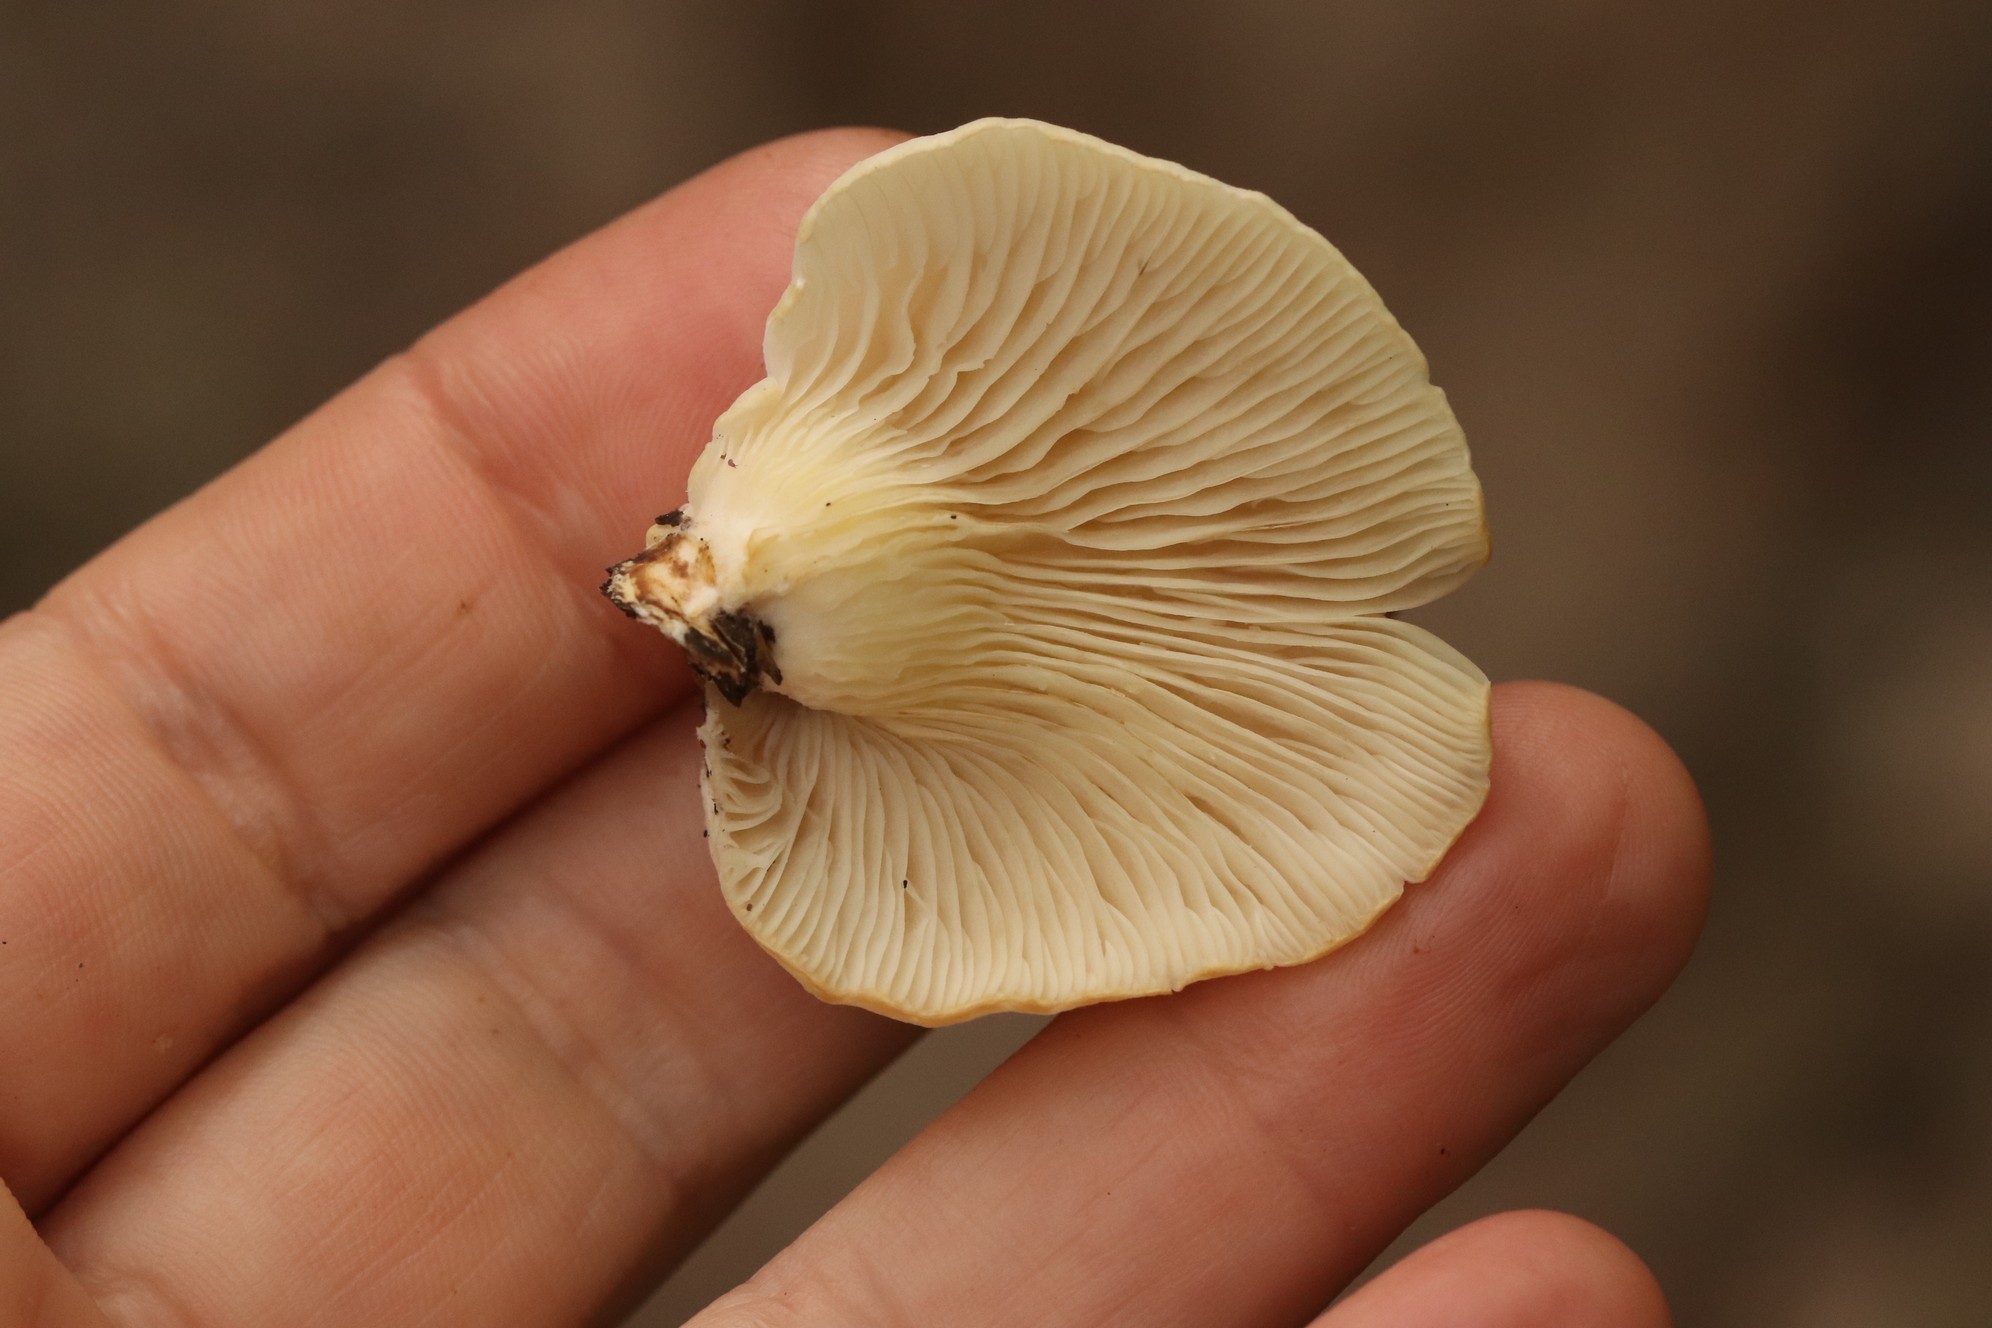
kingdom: Fungi
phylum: Basidiomycota
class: Agaricomycetes
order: Agaricales
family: Pleurotaceae
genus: Pleurotus
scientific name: Pleurotus pulmonarius
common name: Pale oyster
